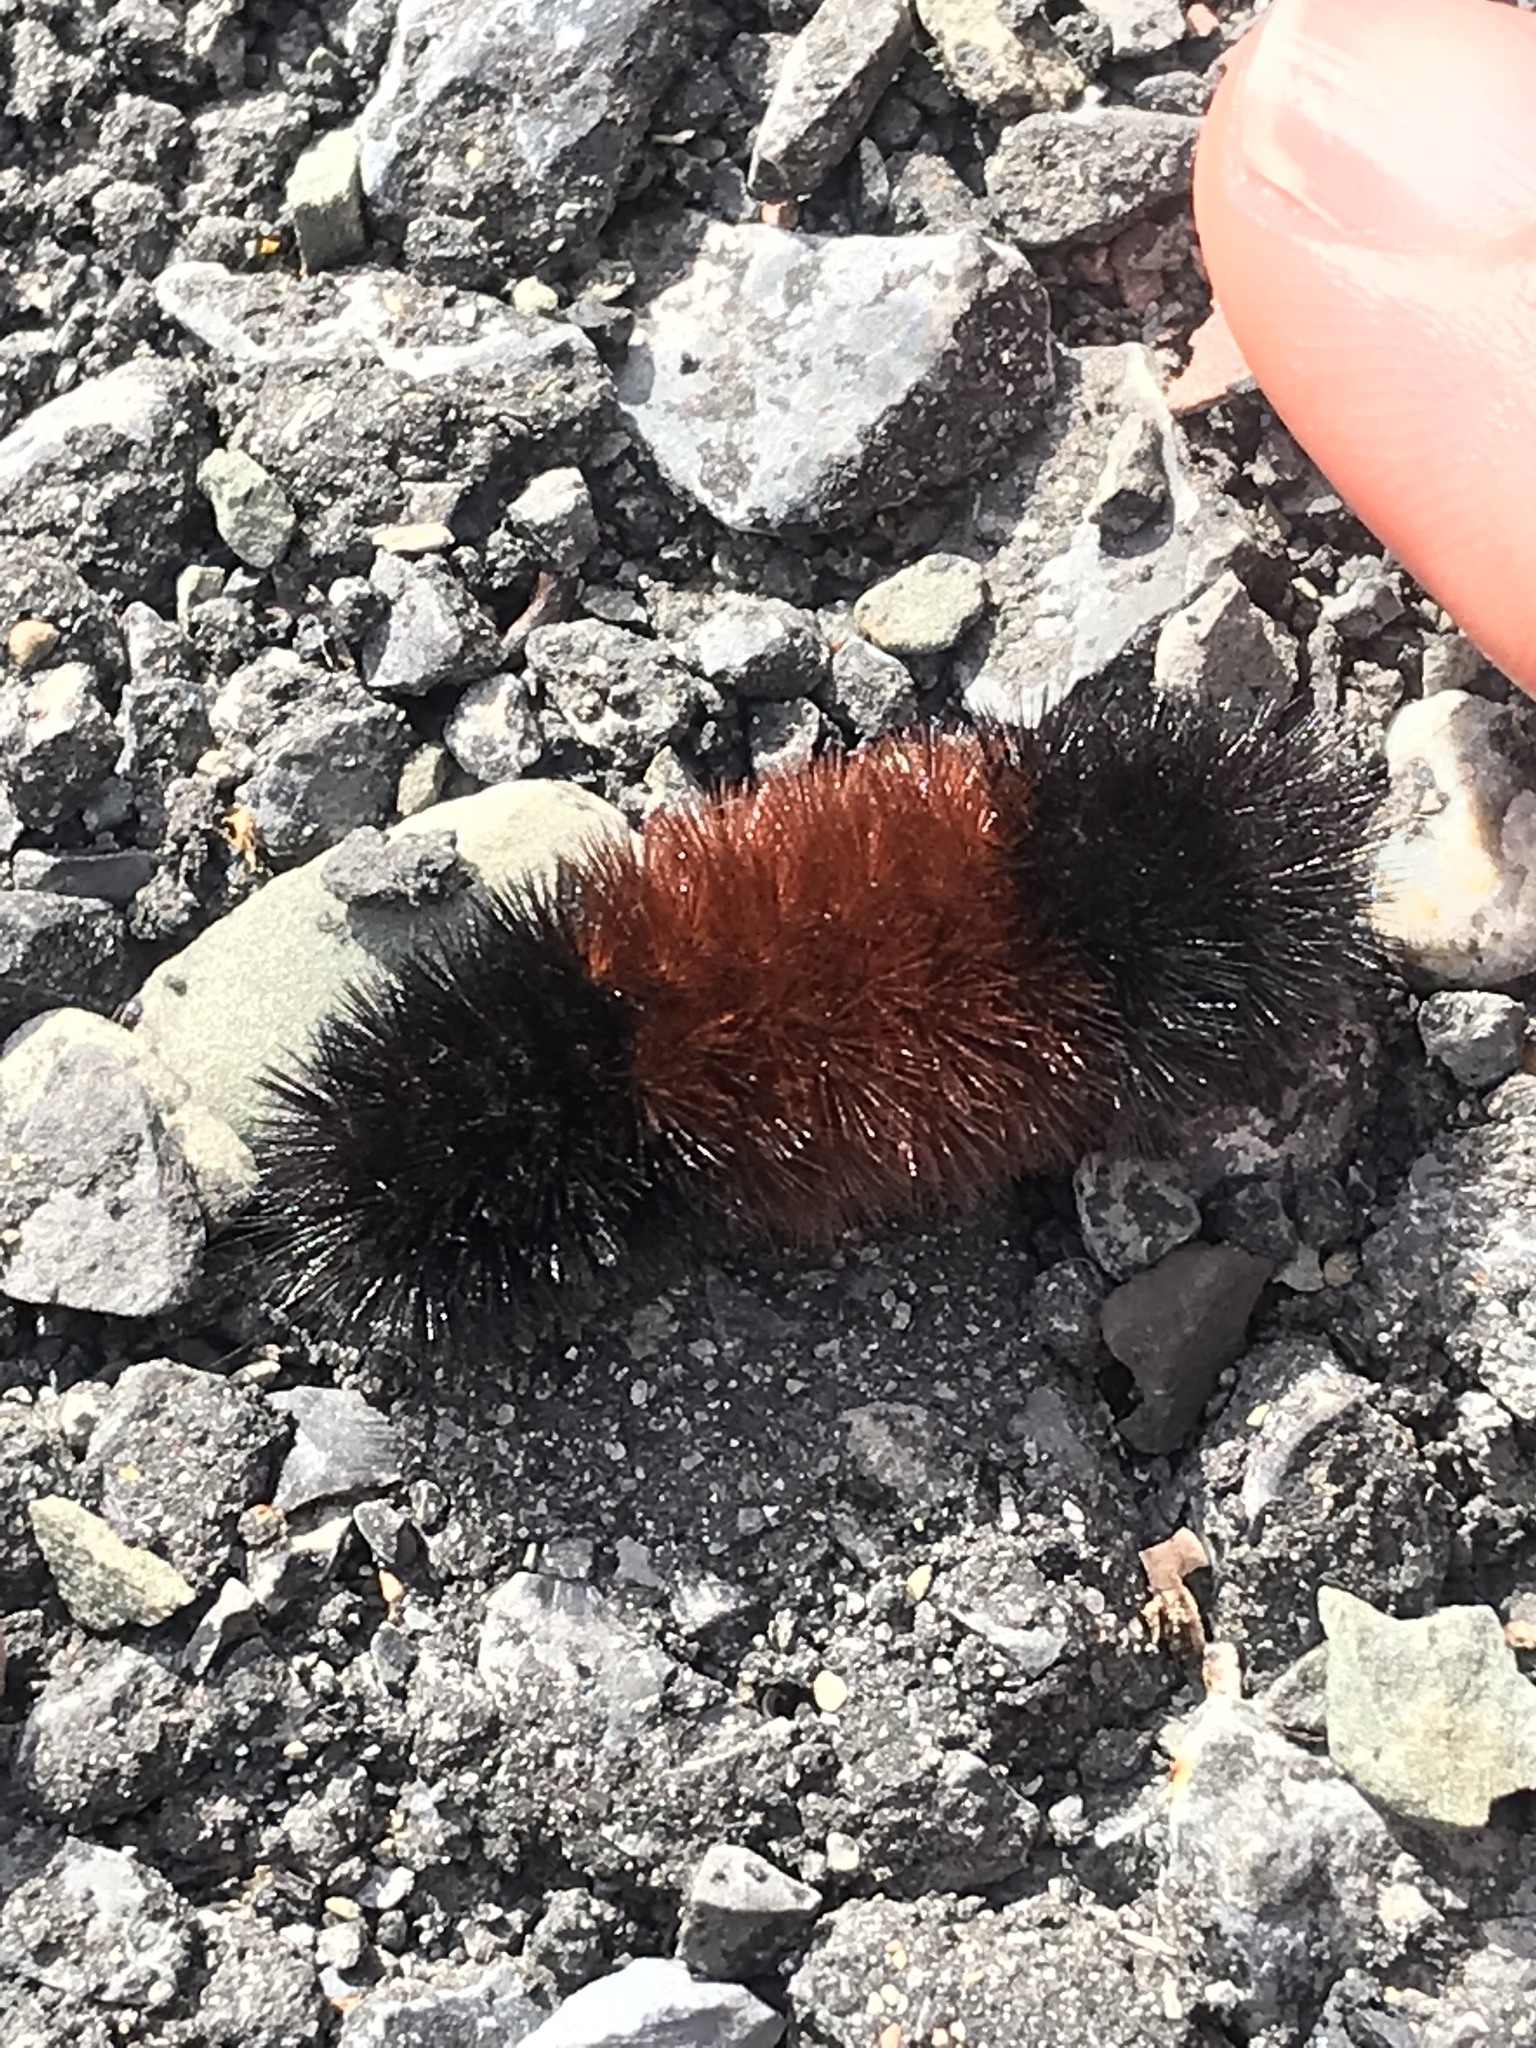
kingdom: Animalia
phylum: Arthropoda
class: Insecta
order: Lepidoptera
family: Erebidae
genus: Pyrrharctia
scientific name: Pyrrharctia isabella
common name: Isabella tiger moth
